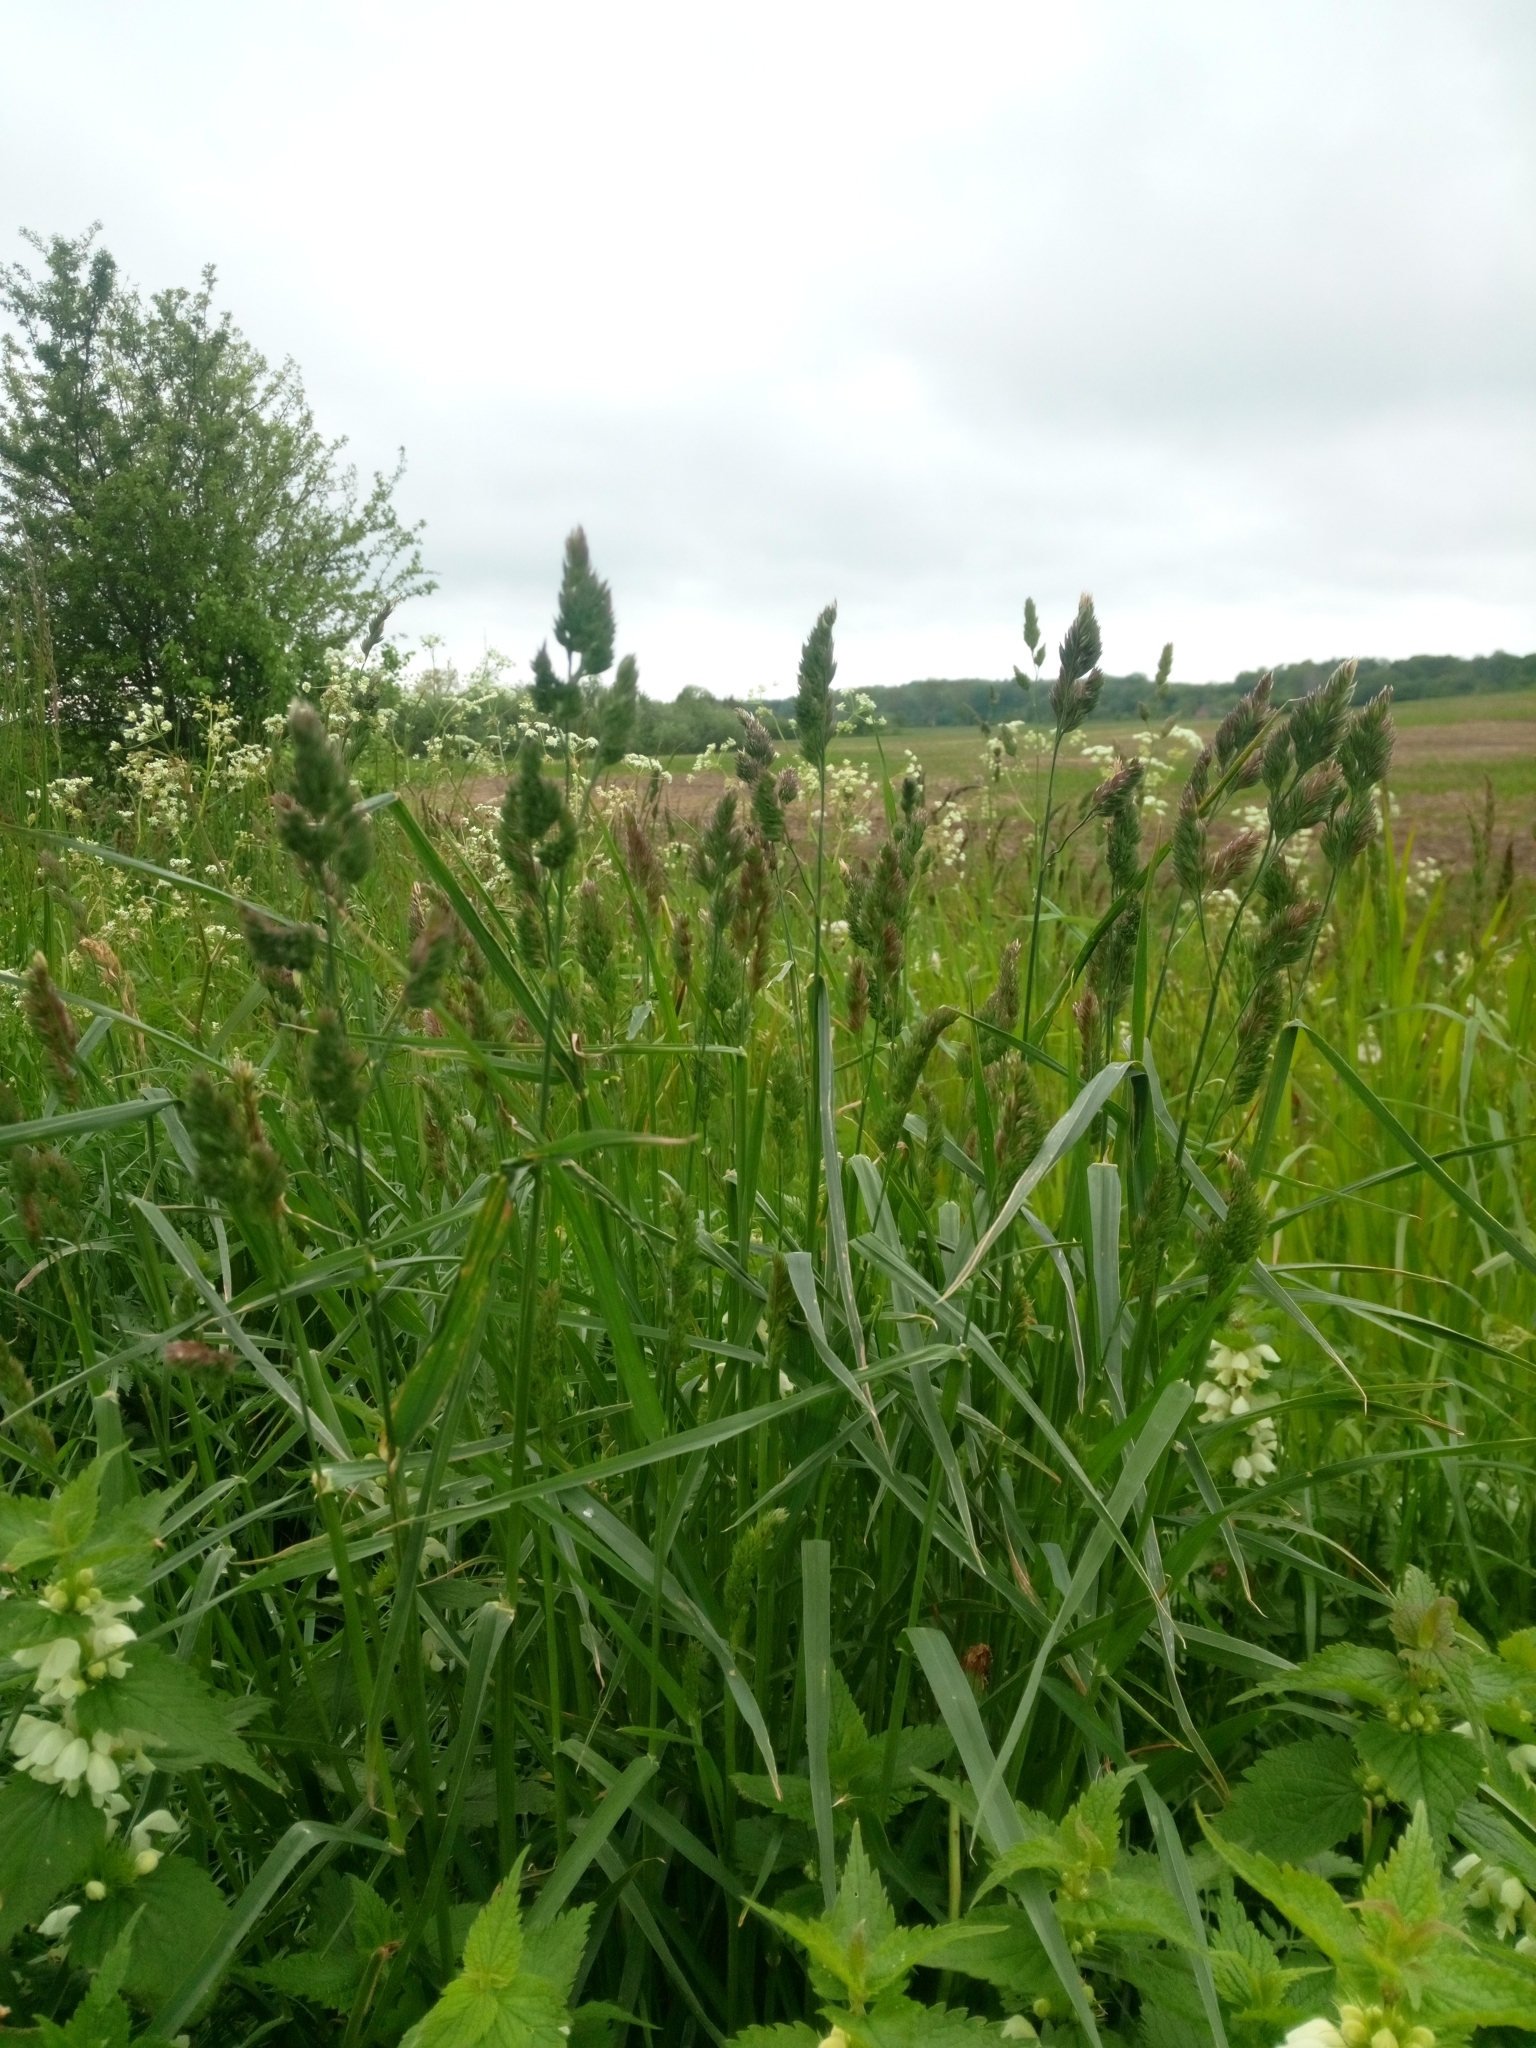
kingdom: Plantae
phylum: Tracheophyta
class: Liliopsida
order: Poales
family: Poaceae
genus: Dactylis
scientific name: Dactylis glomerata
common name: Orchardgrass
